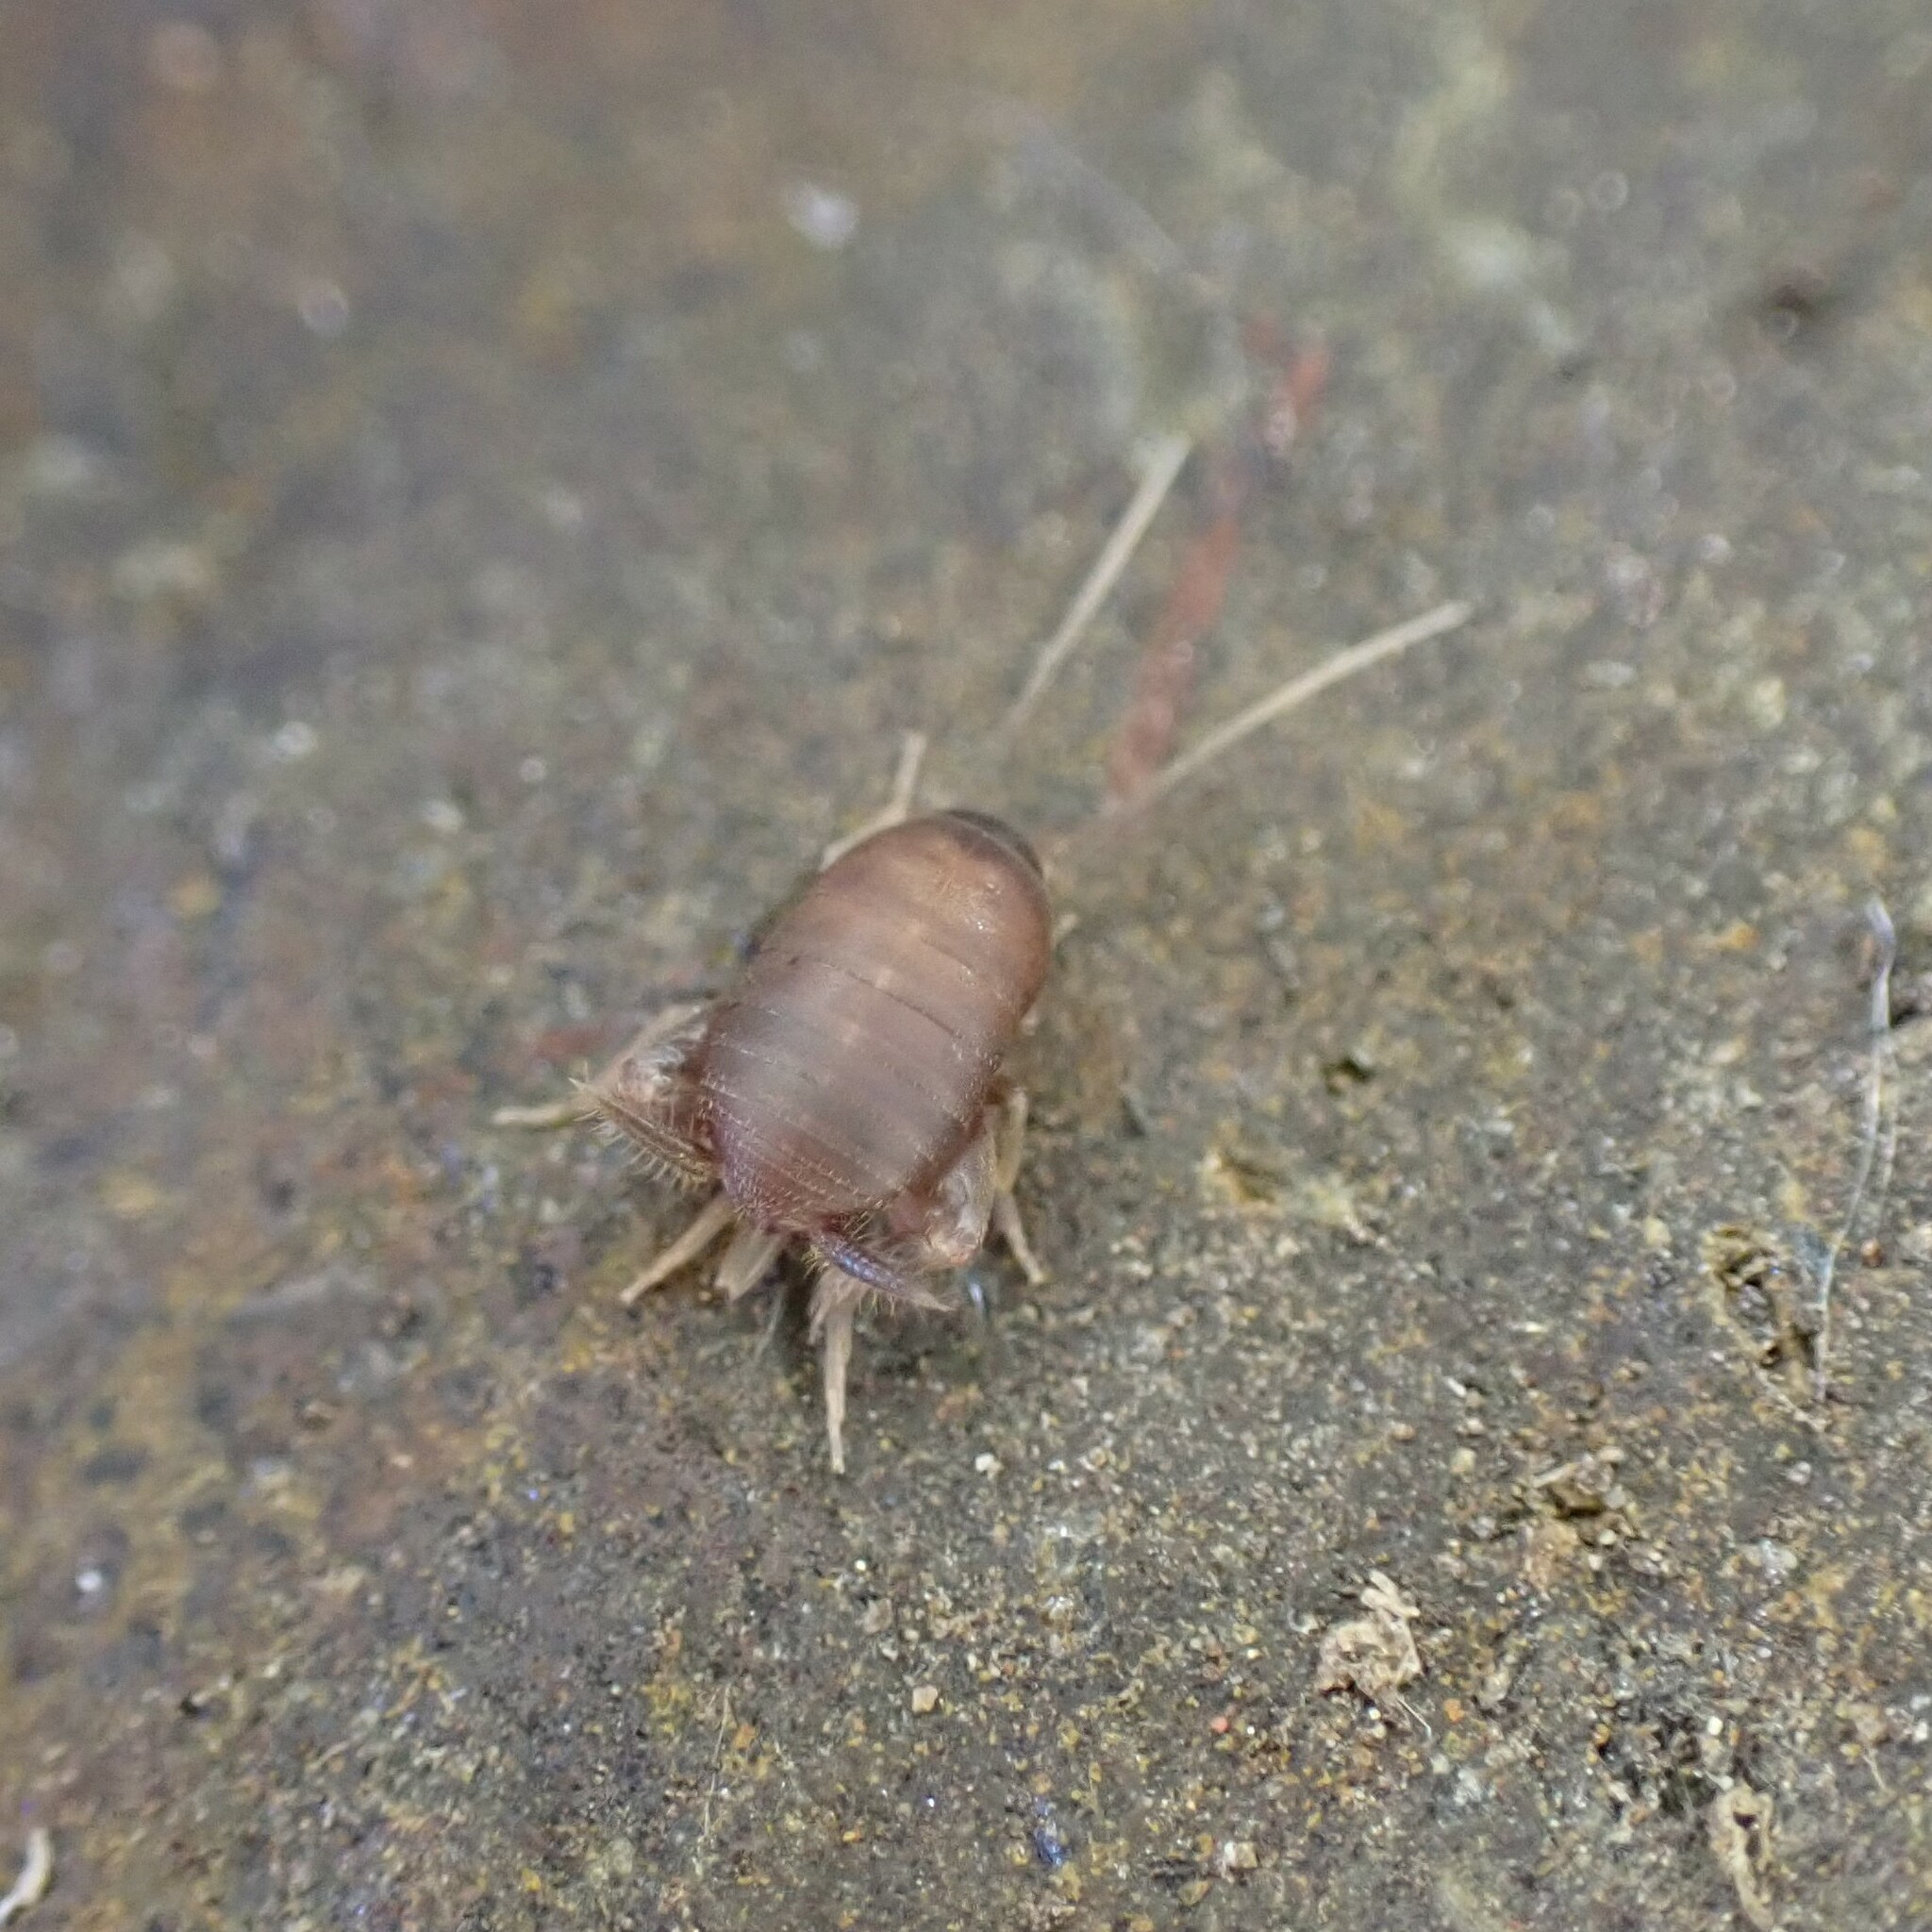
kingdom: Animalia
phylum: Arthropoda
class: Insecta
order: Orthoptera
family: Myrmecophilidae
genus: Myrmecophilus
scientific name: Myrmecophilus oregonensis
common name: Oregon ant cricket
